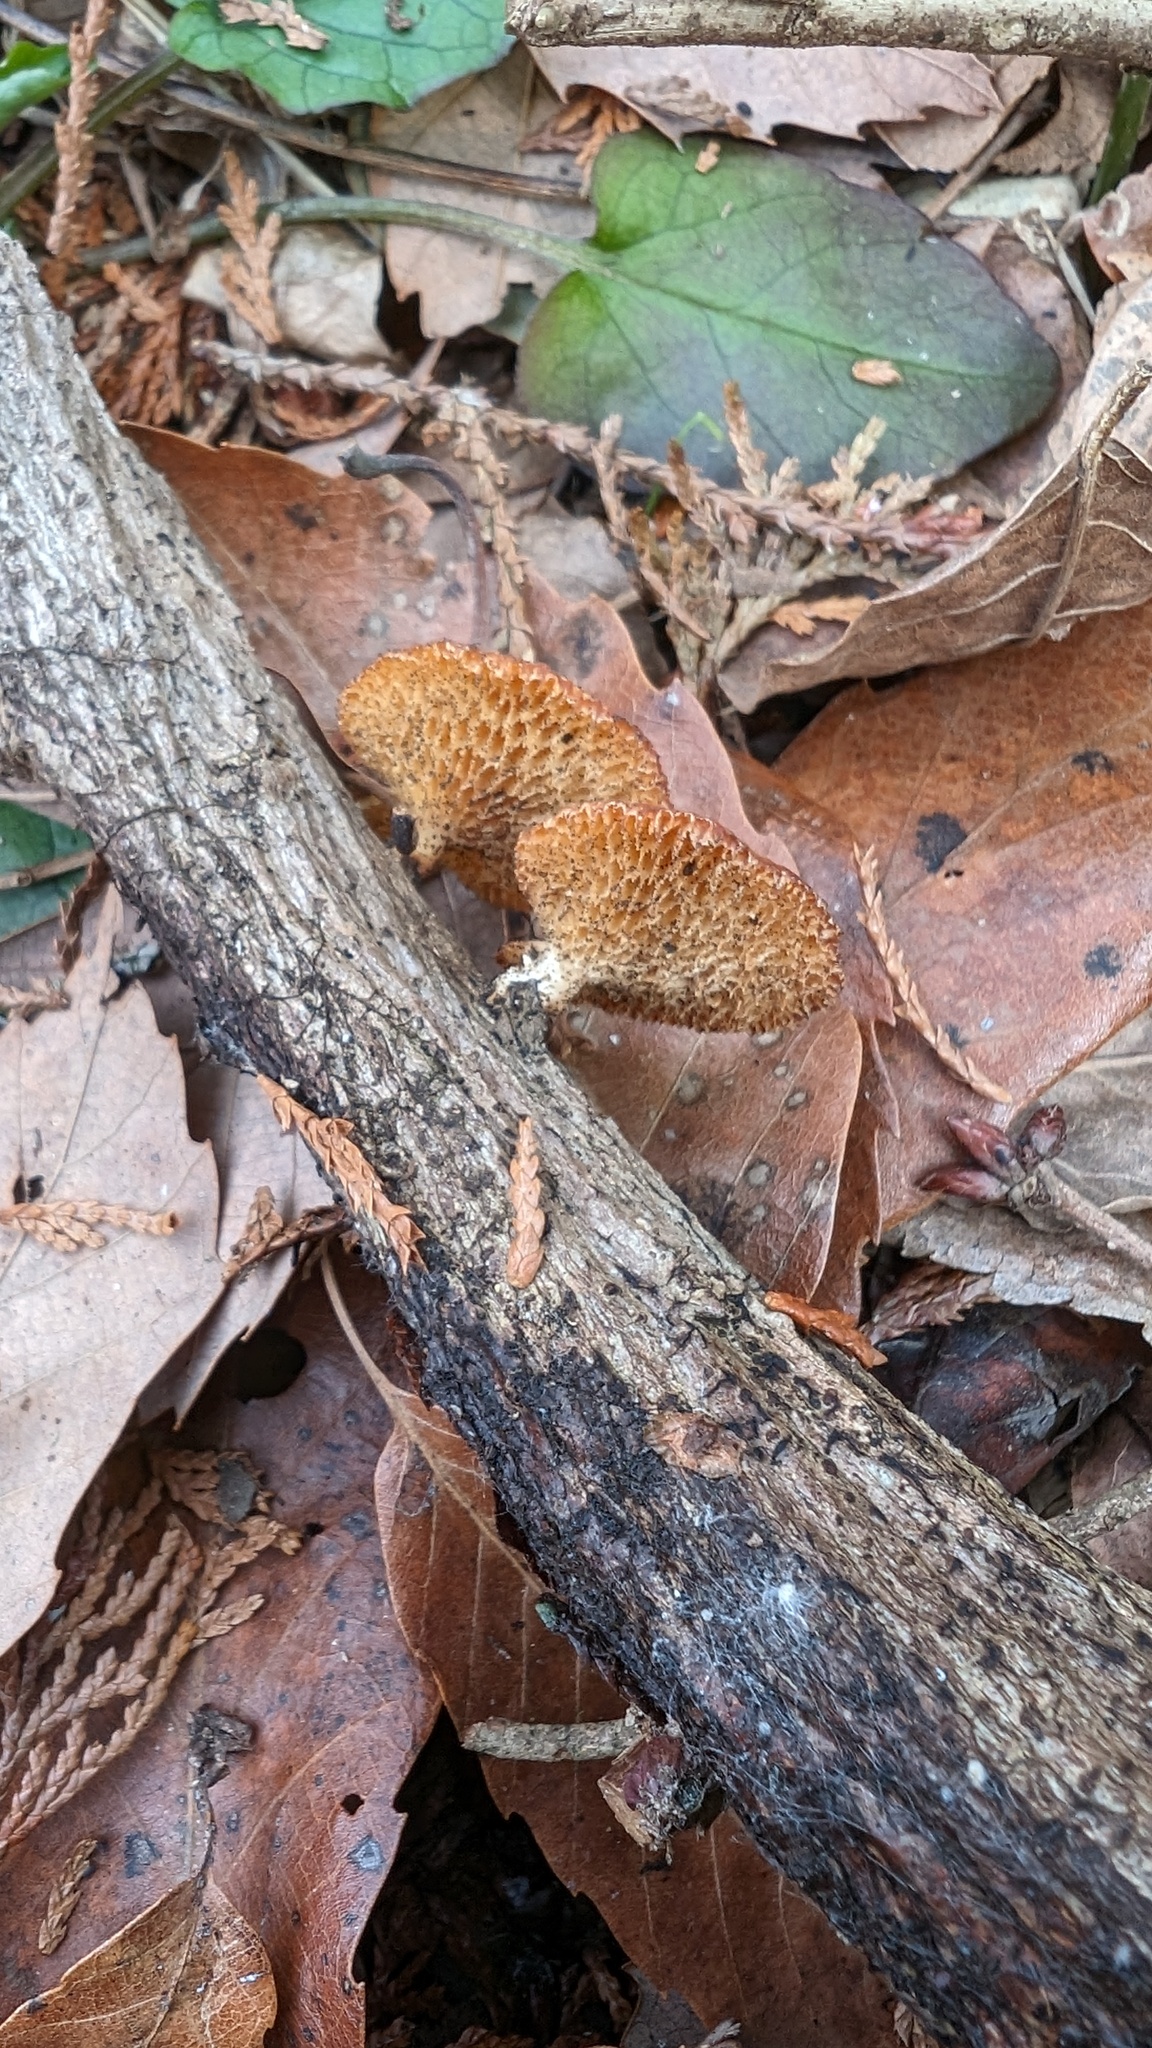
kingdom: Fungi
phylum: Basidiomycota
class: Agaricomycetes
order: Polyporales
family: Polyporaceae
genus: Neofavolus
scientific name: Neofavolus alveolaris
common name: Hexagonal-pored polypore
